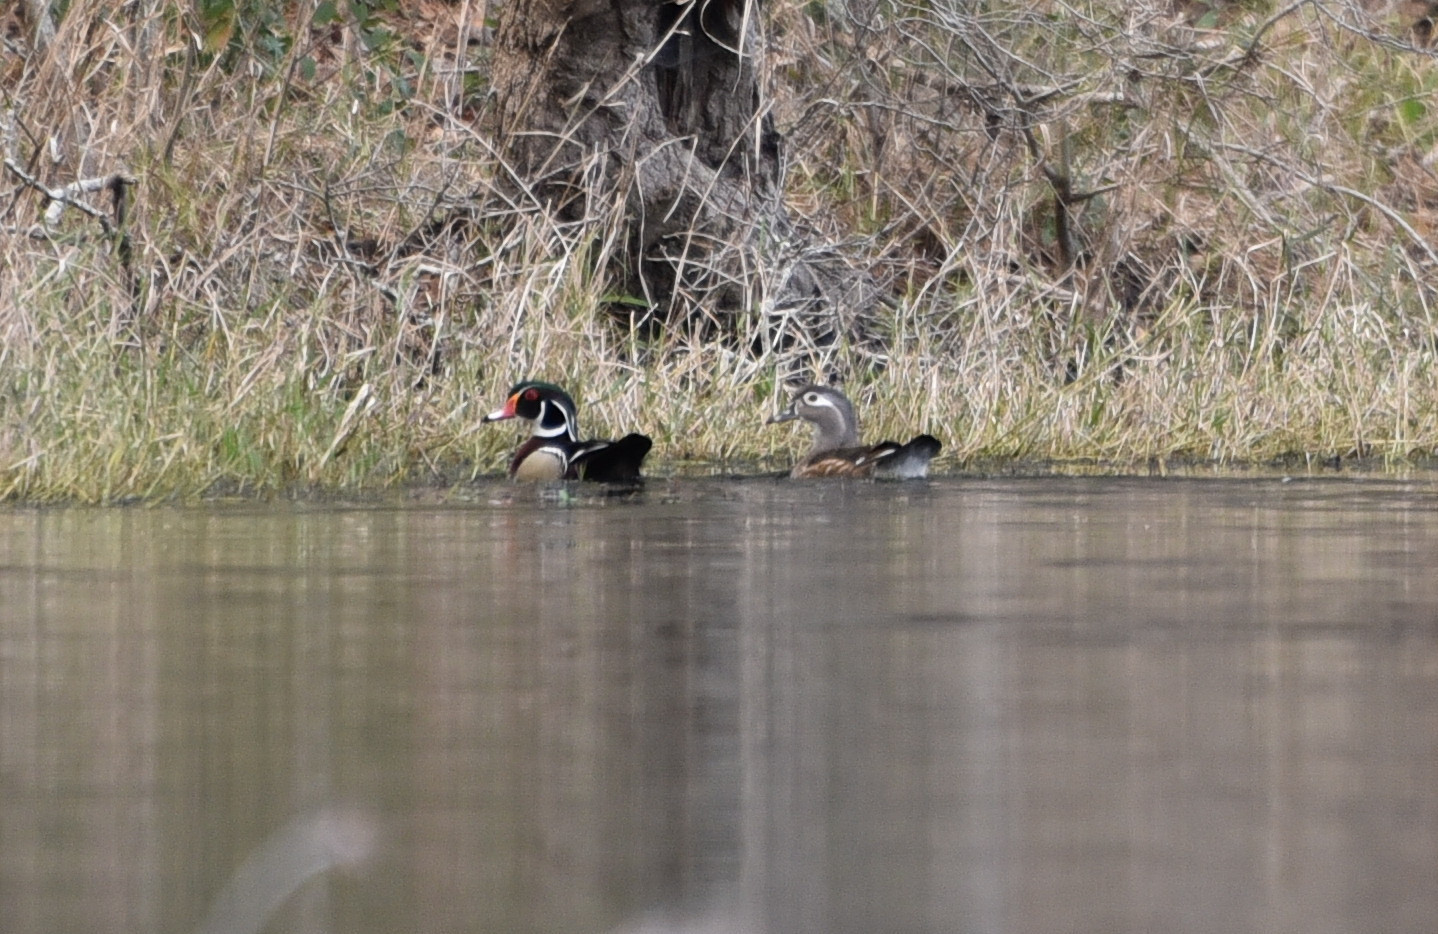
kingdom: Animalia
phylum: Chordata
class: Aves
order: Anseriformes
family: Anatidae
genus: Aix
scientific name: Aix sponsa
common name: Wood duck
